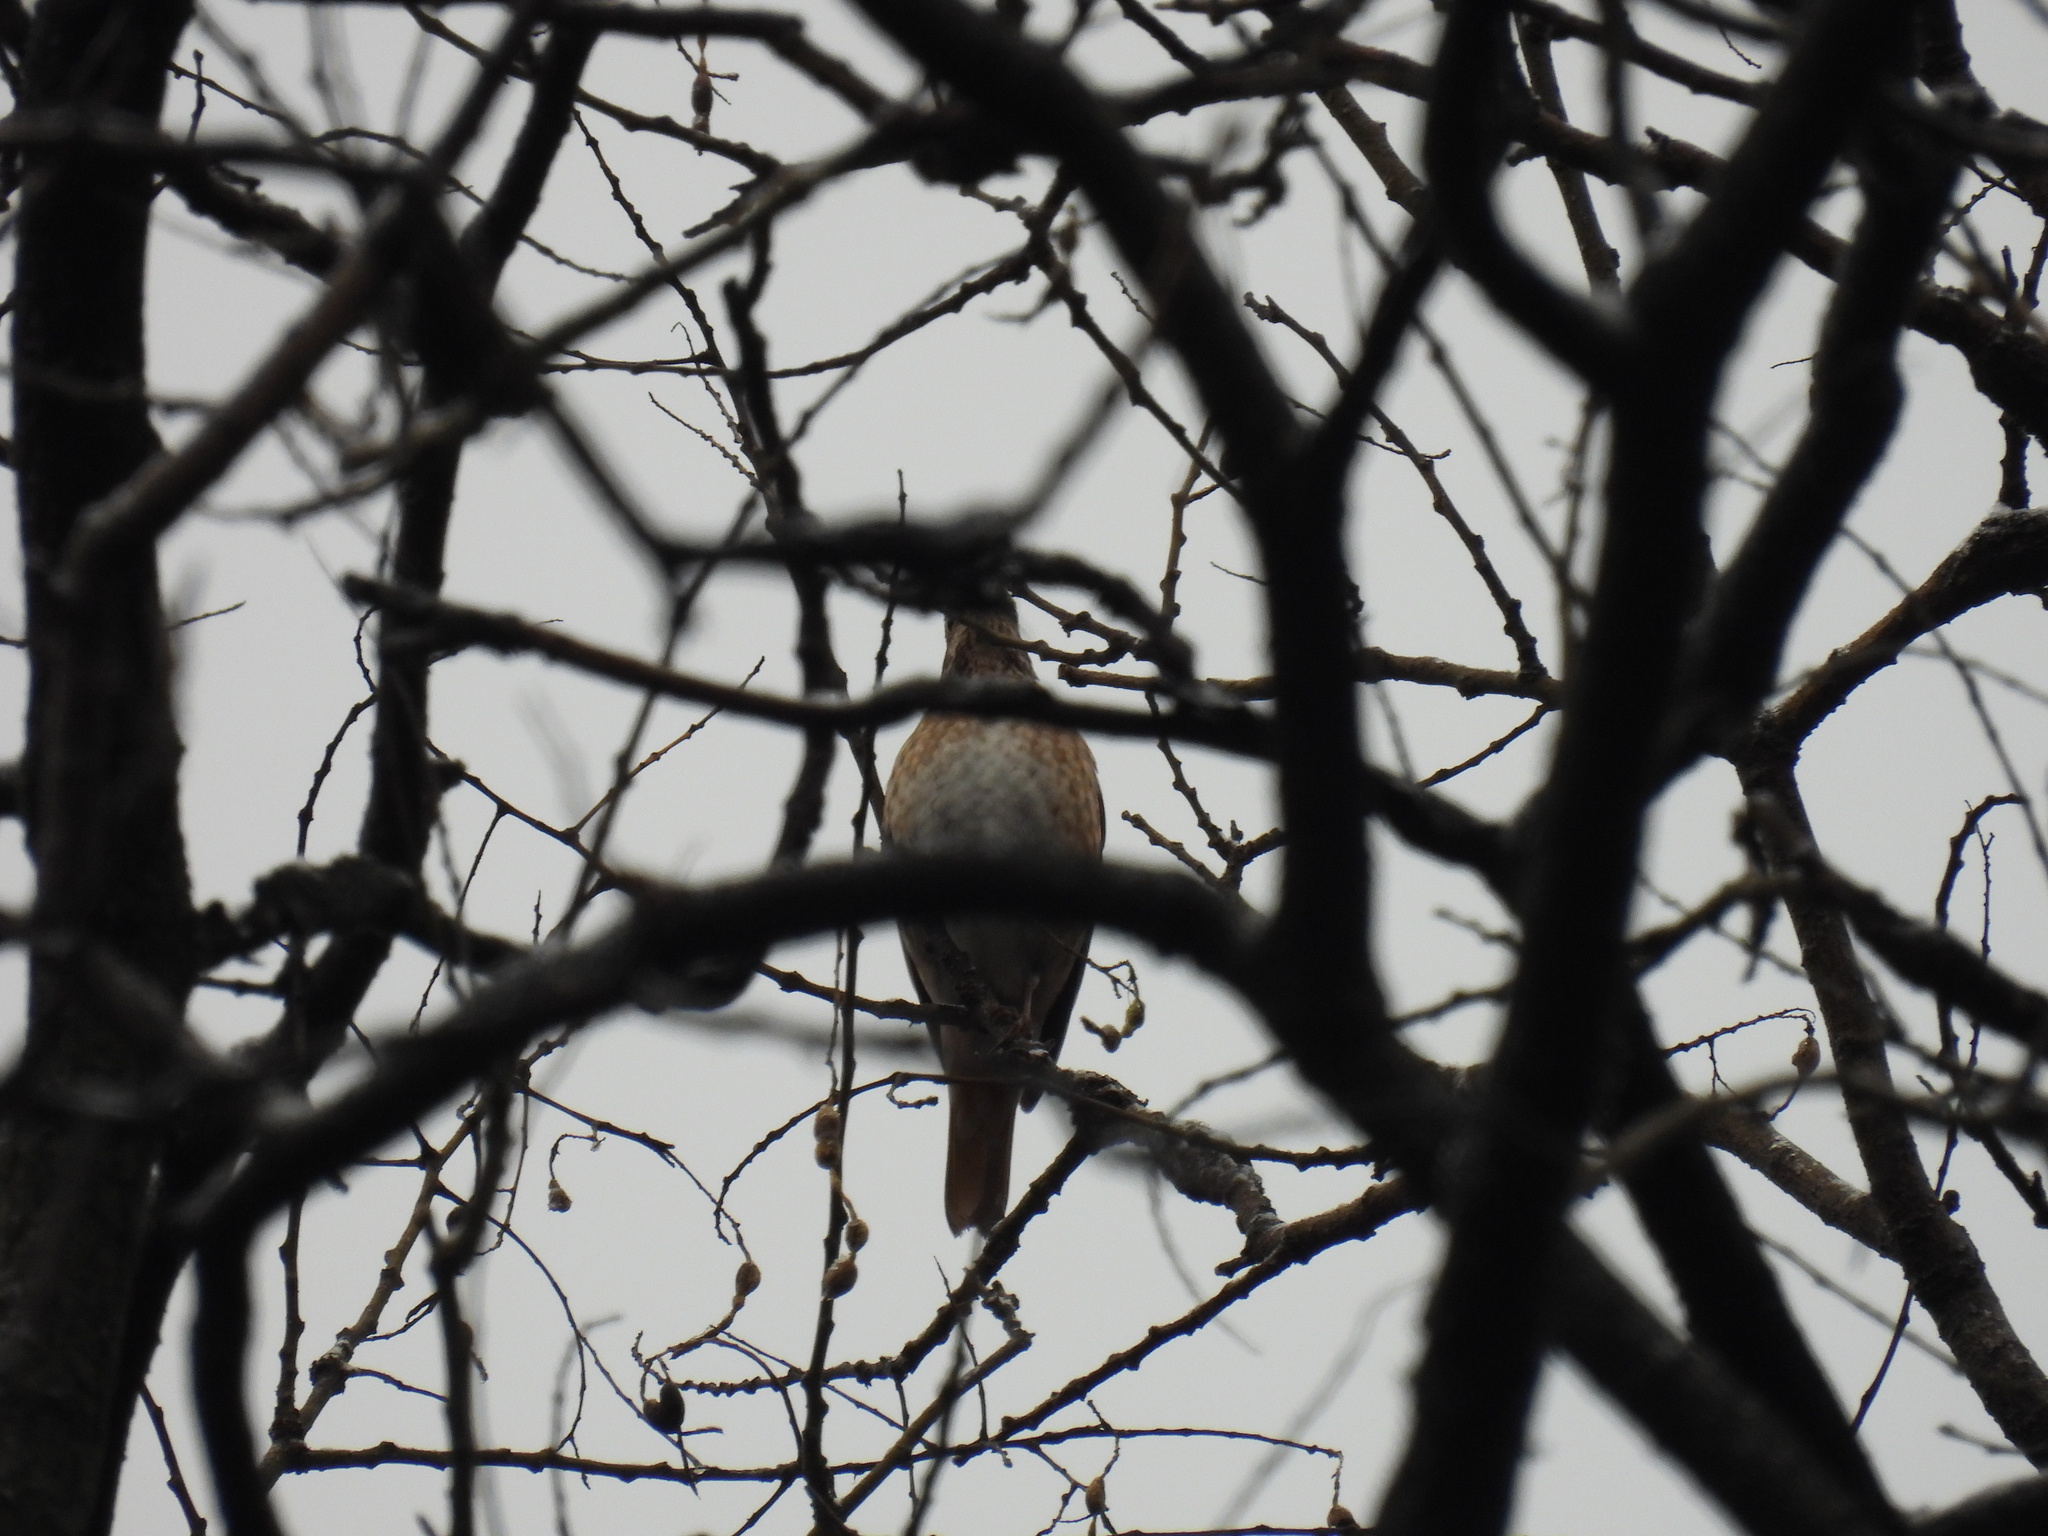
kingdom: Animalia
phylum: Chordata
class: Aves
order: Passeriformes
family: Turdidae
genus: Turdus
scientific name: Turdus naumanni
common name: Naumann's thrush
